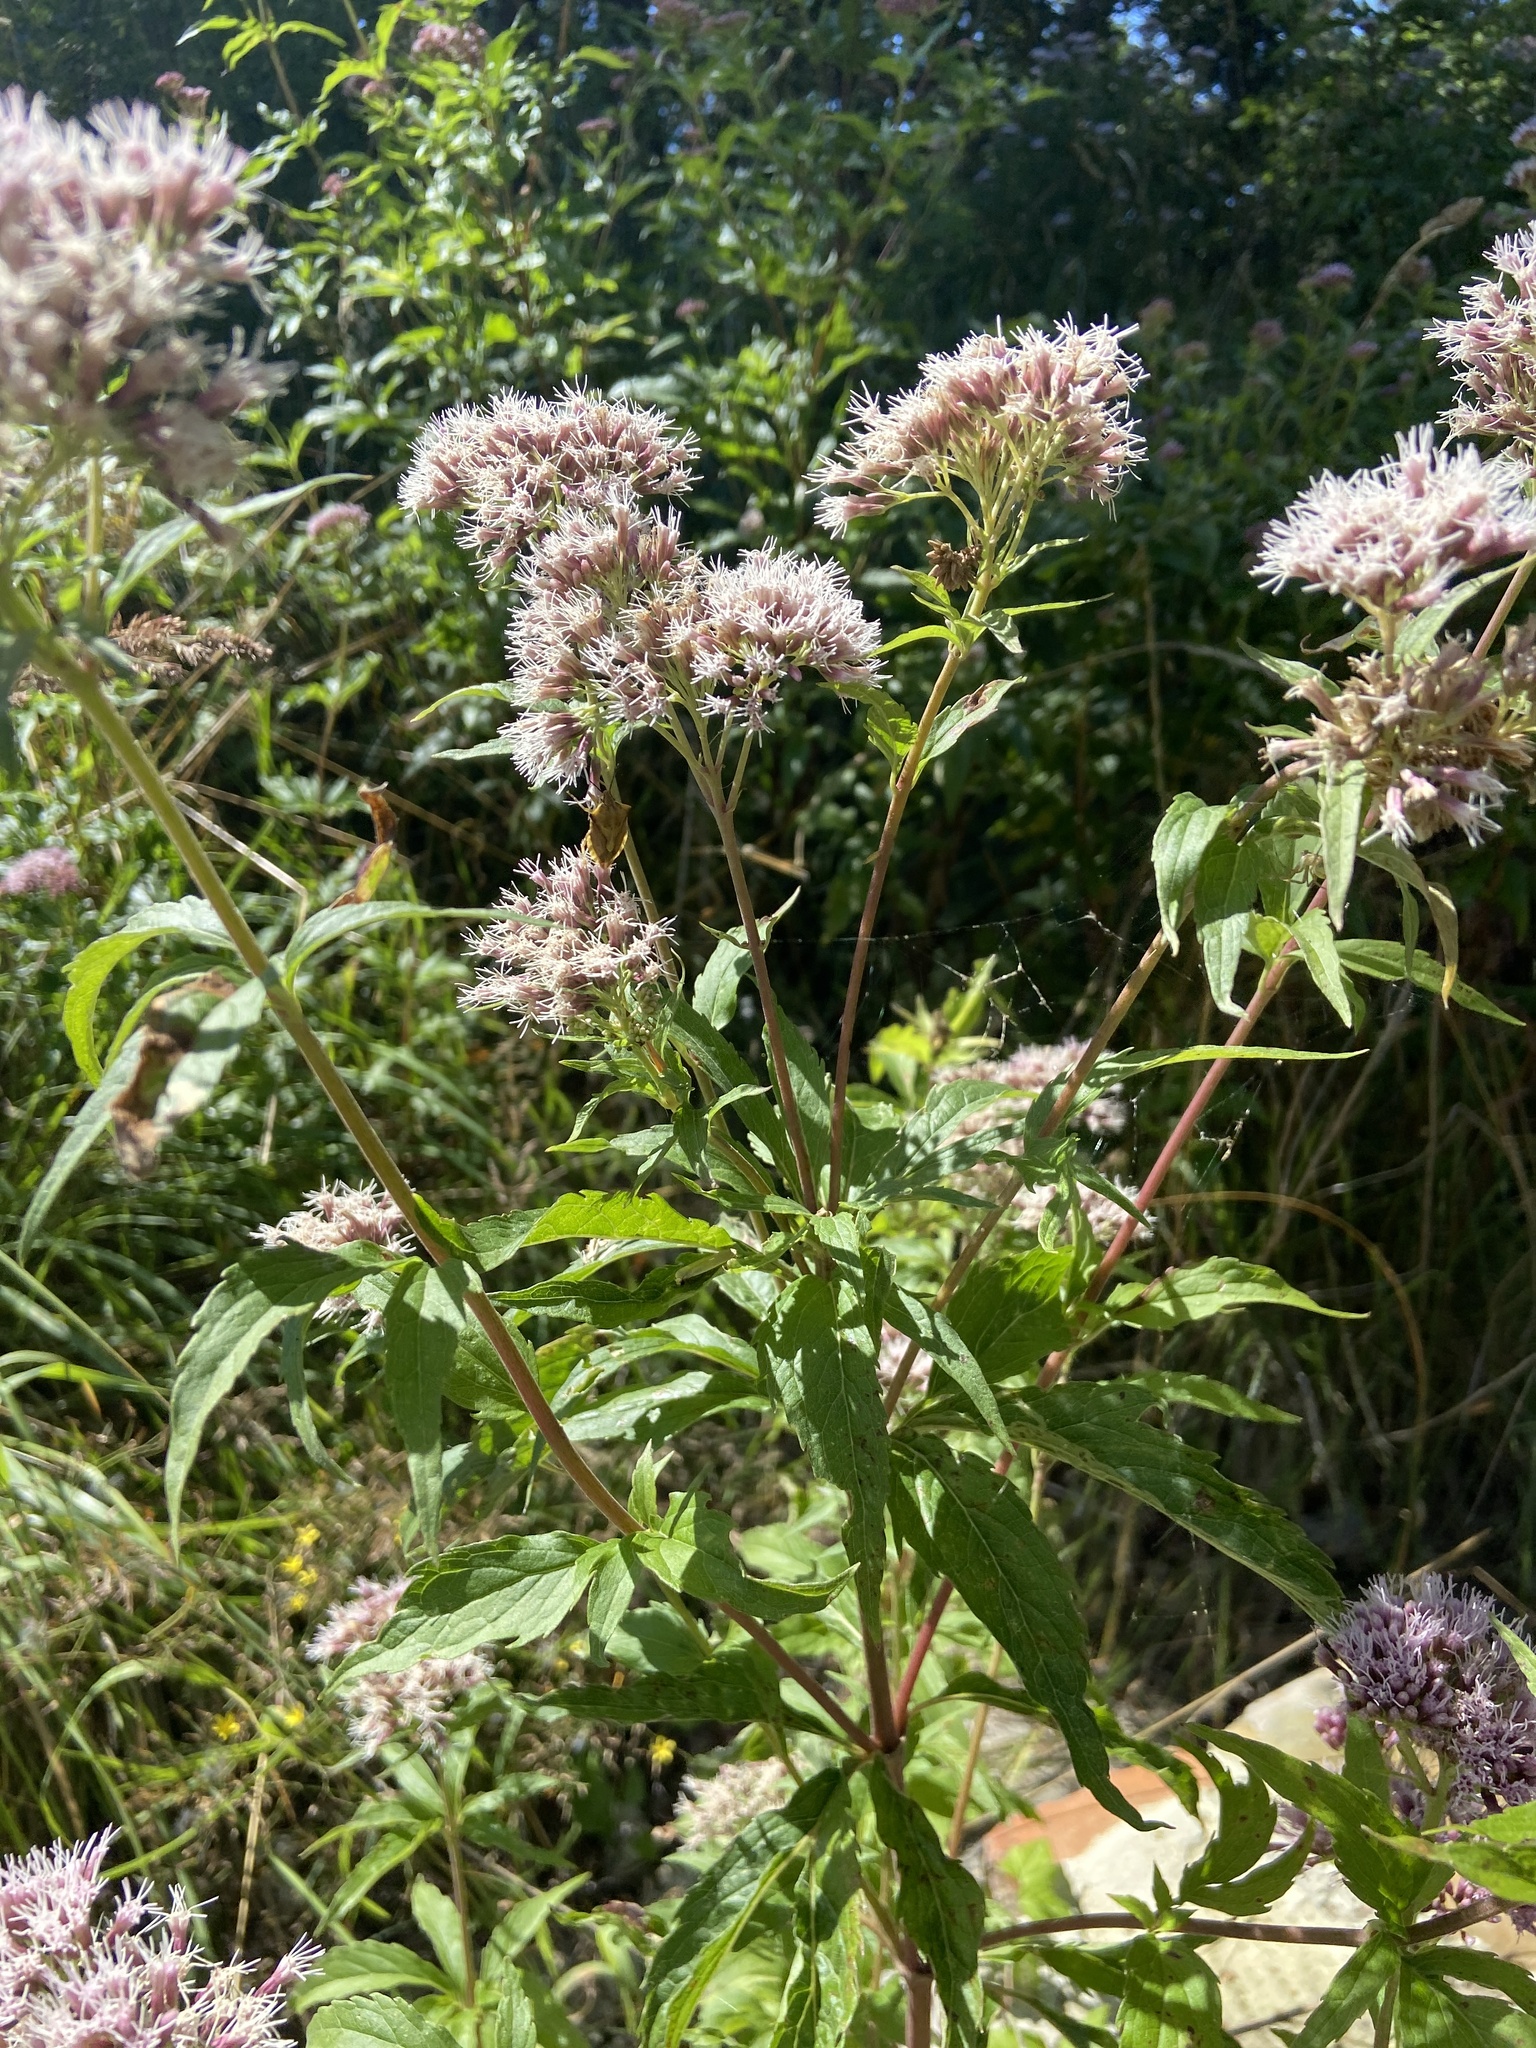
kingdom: Plantae
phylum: Tracheophyta
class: Magnoliopsida
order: Asterales
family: Asteraceae
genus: Eupatorium
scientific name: Eupatorium cannabinum
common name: Hemp-agrimony
